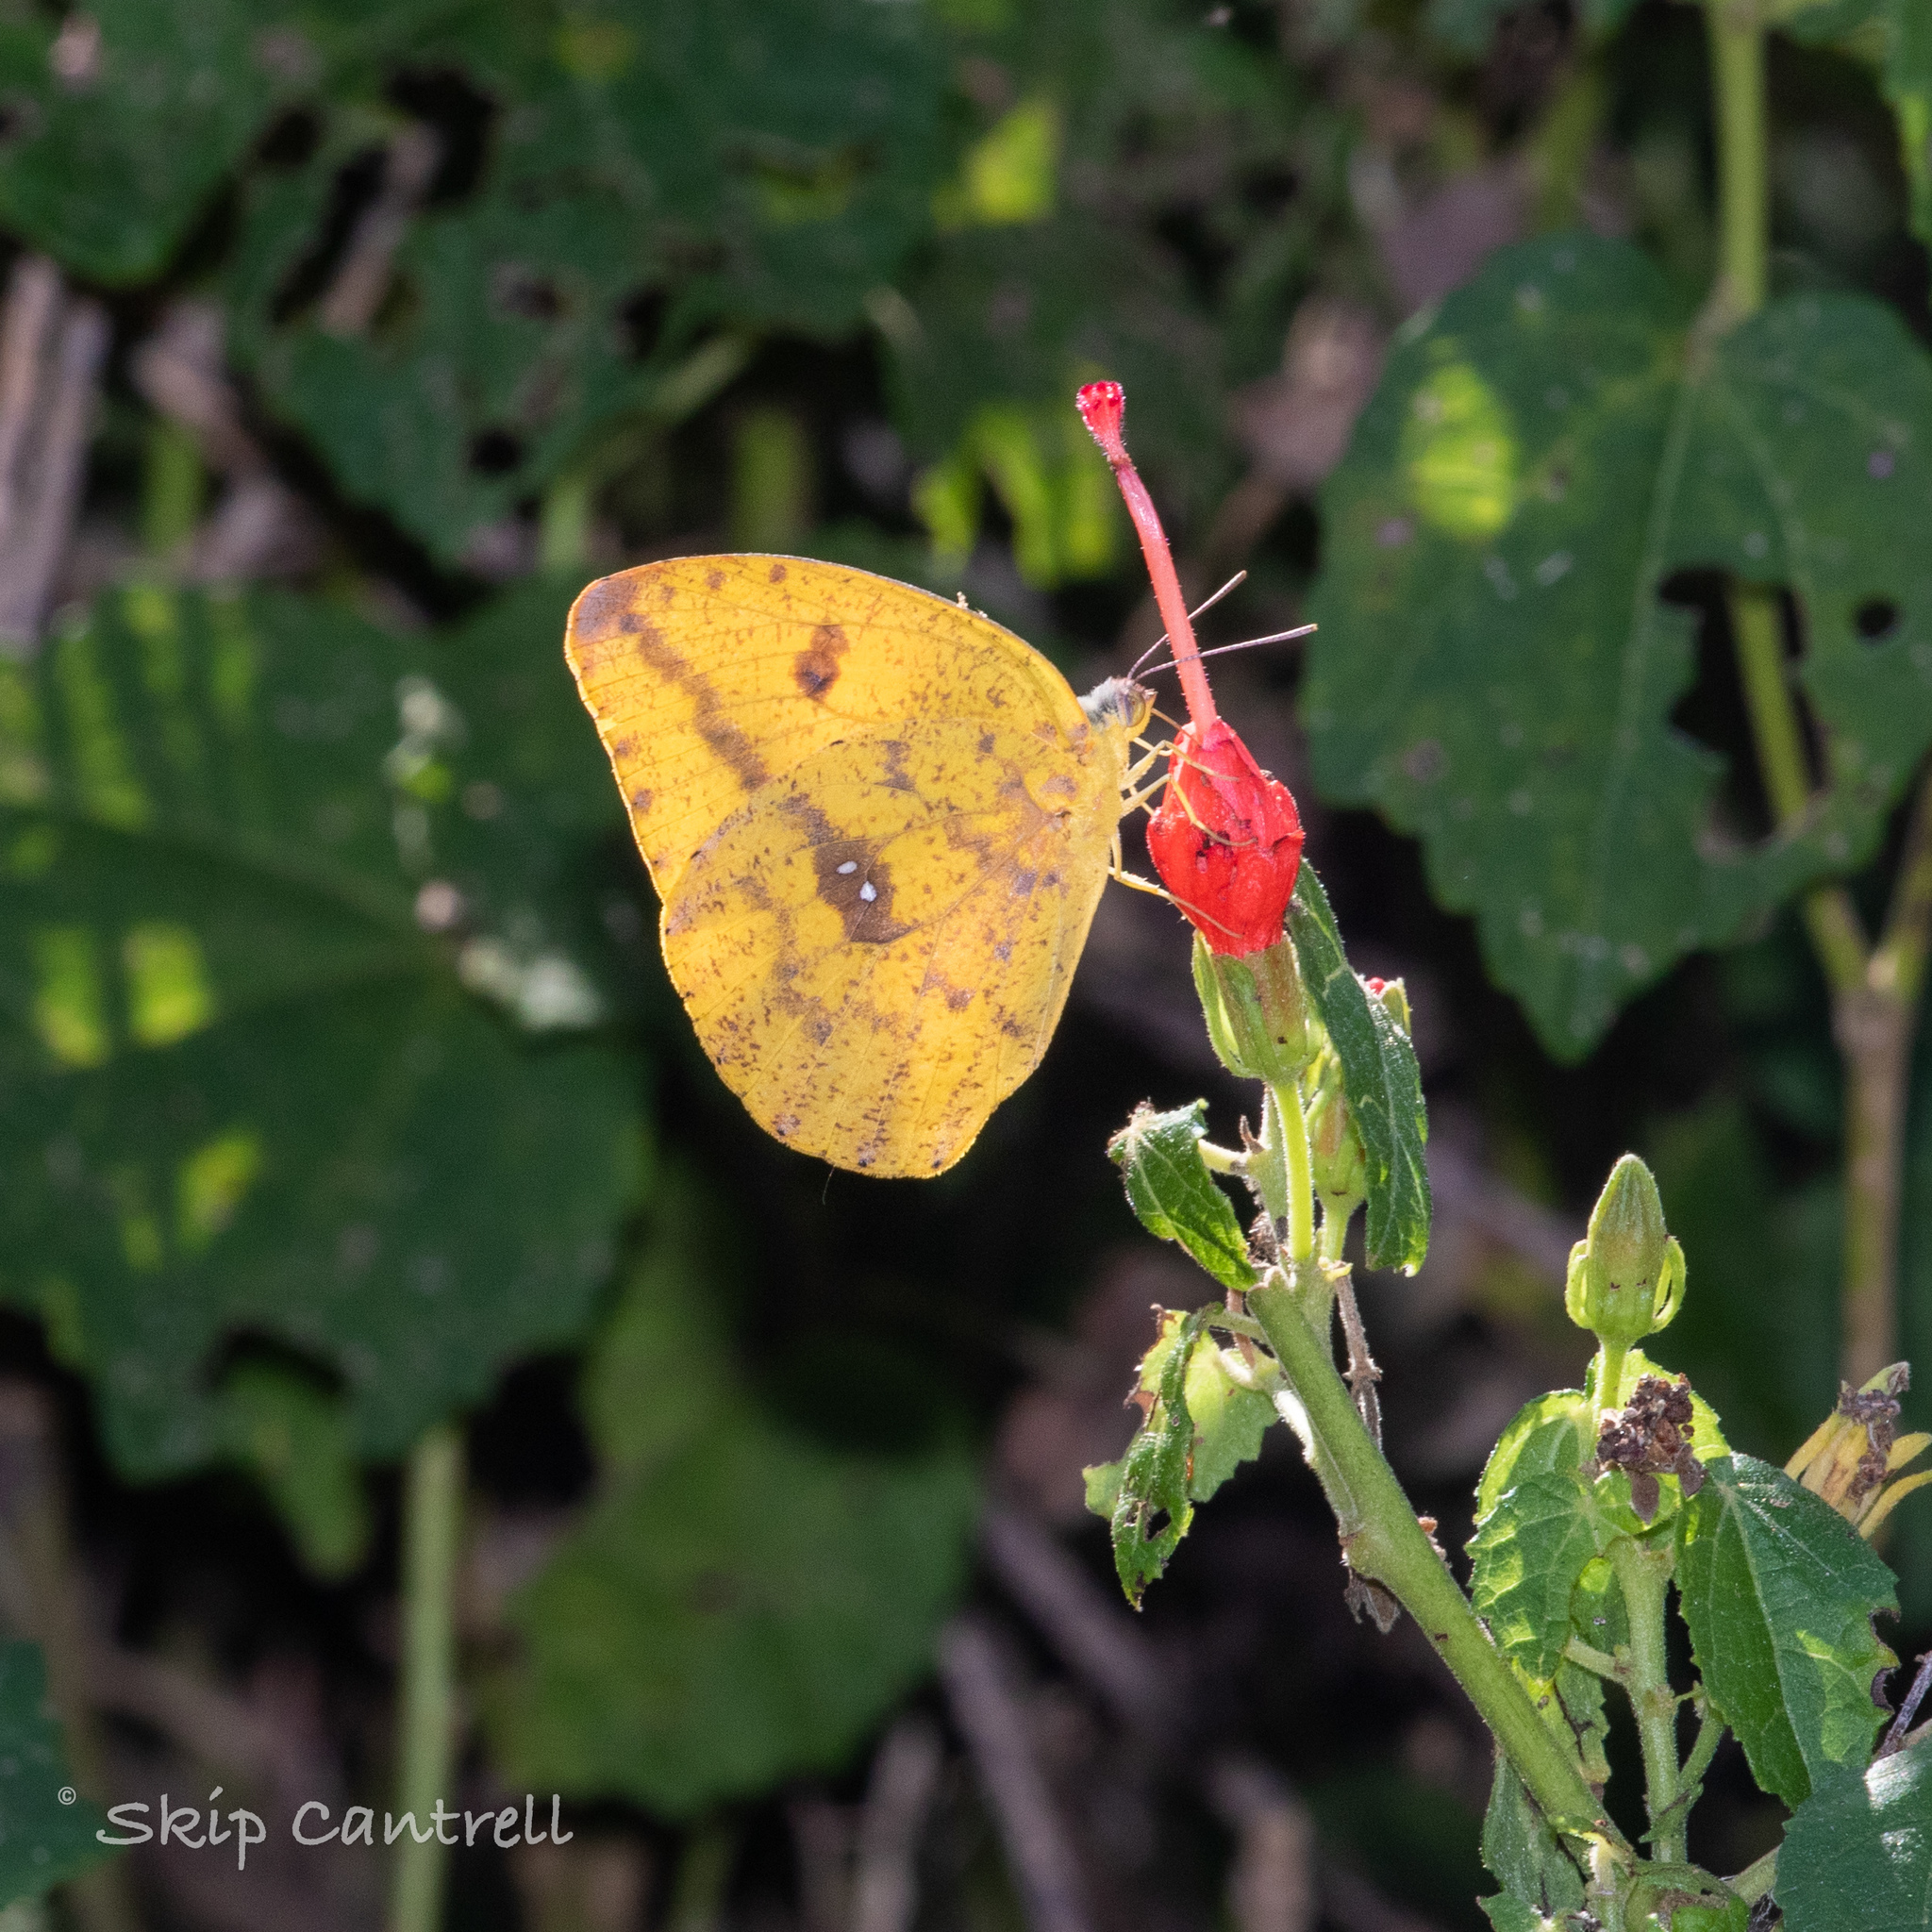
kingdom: Animalia
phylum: Arthropoda
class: Insecta
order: Lepidoptera
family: Pieridae
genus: Phoebis
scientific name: Phoebis agarithe
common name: Large orange sulphur
